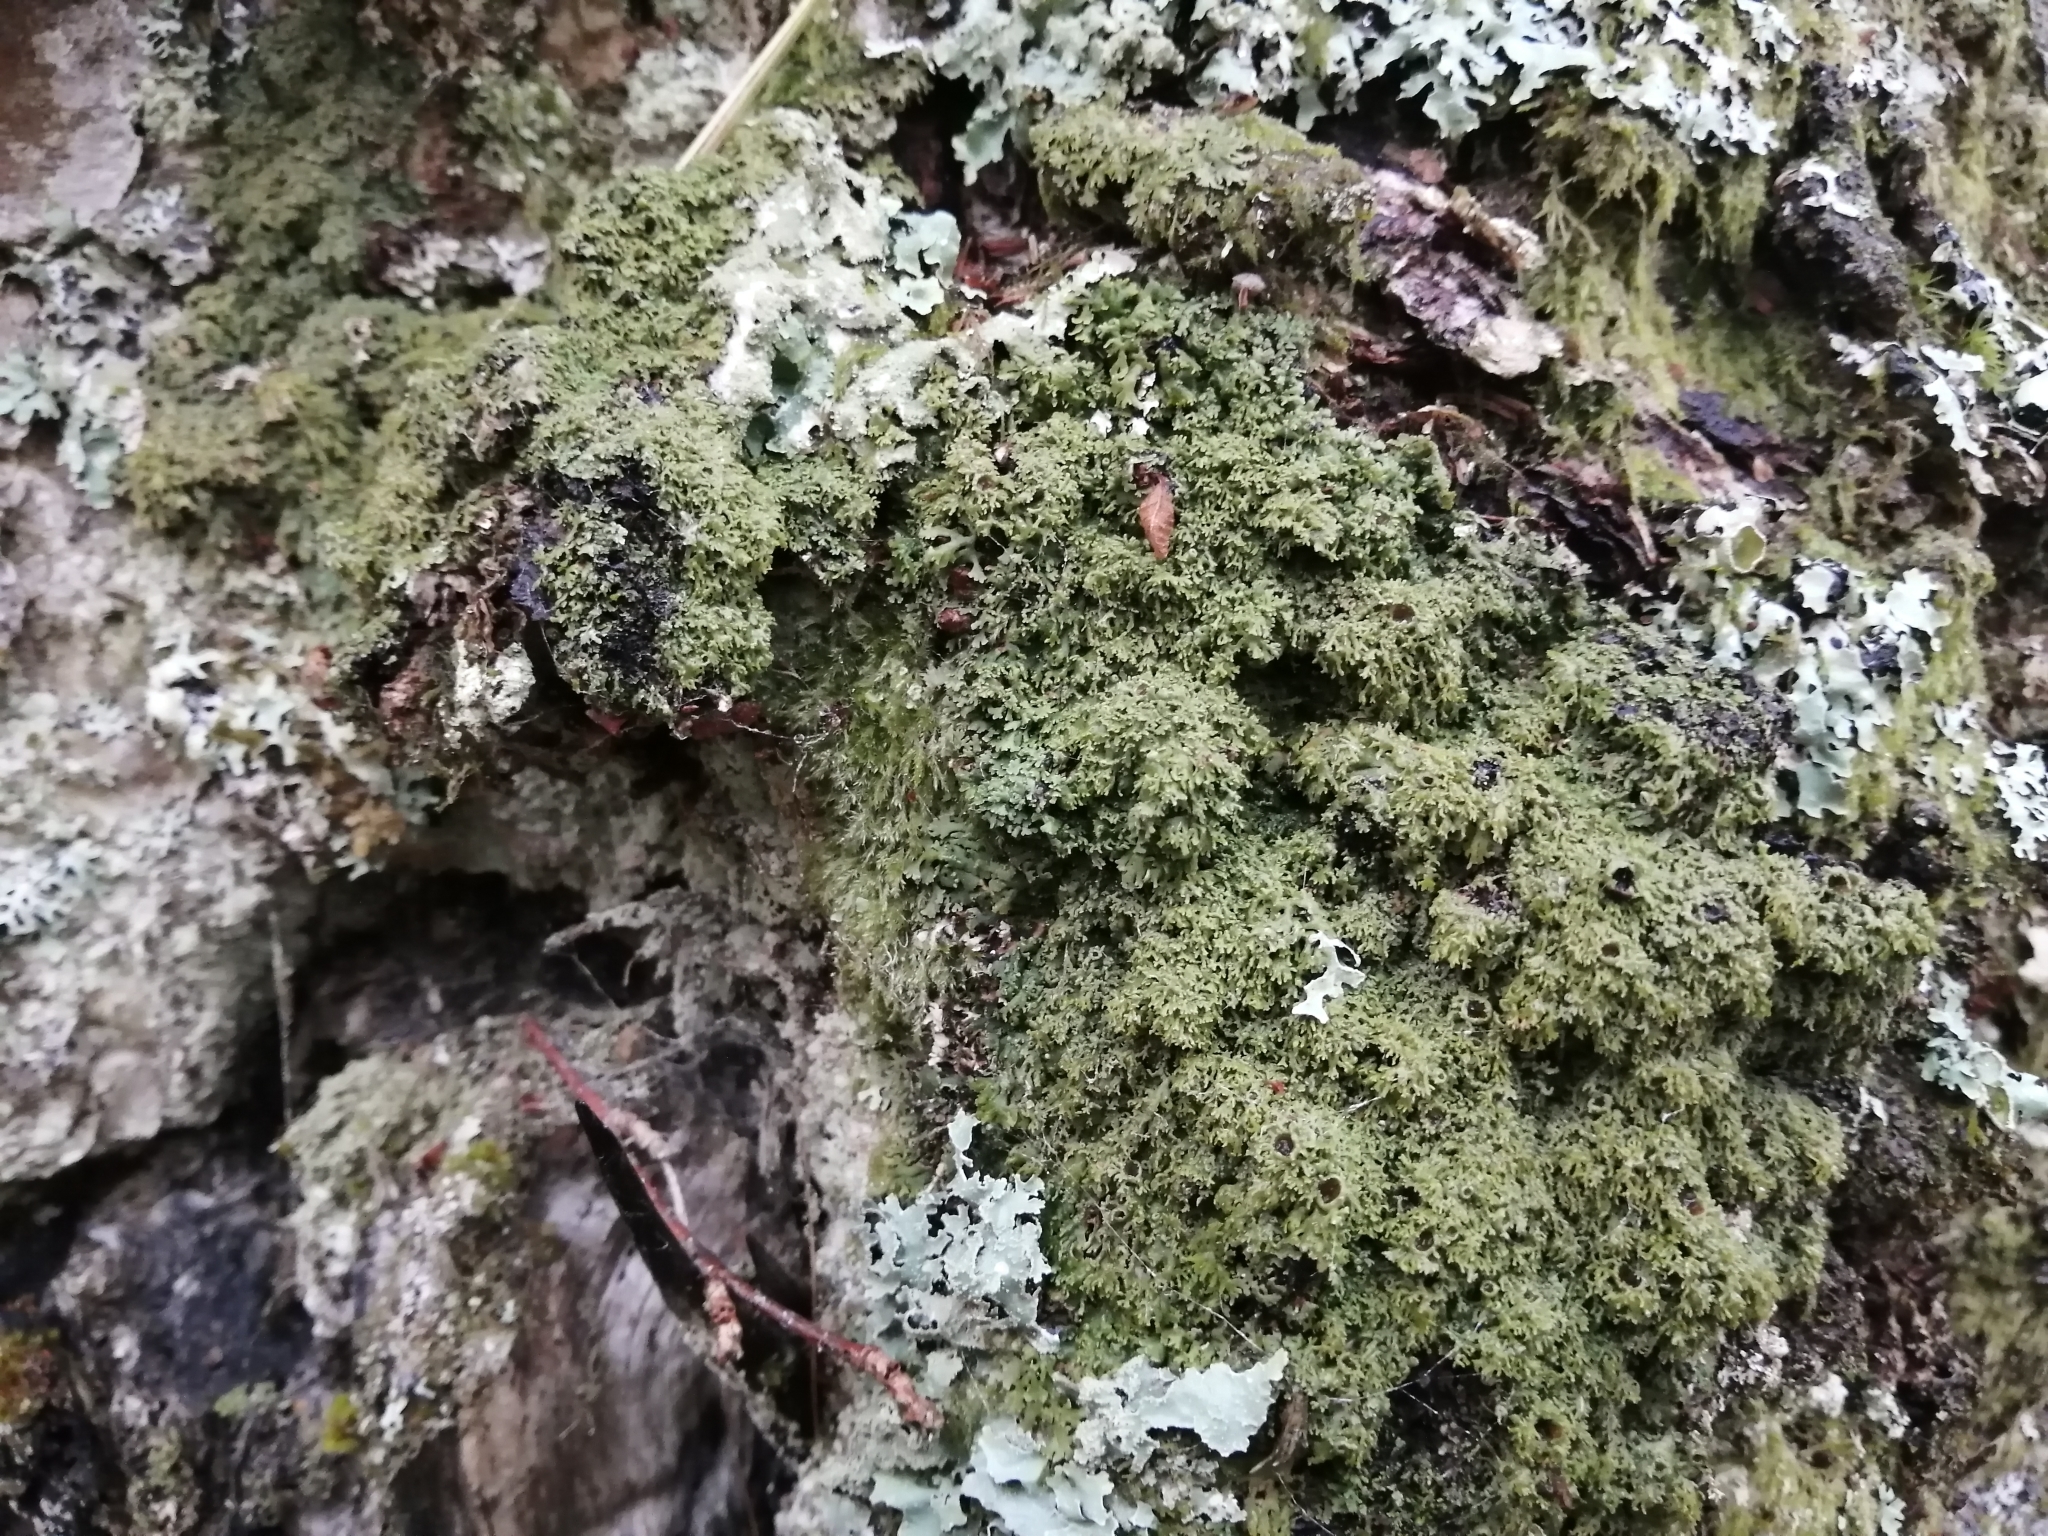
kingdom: Fungi
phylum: Ascomycota
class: Lecanoromycetes
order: Caliciales
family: Physciaceae
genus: Kurokawia
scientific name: Kurokawia palmulata
